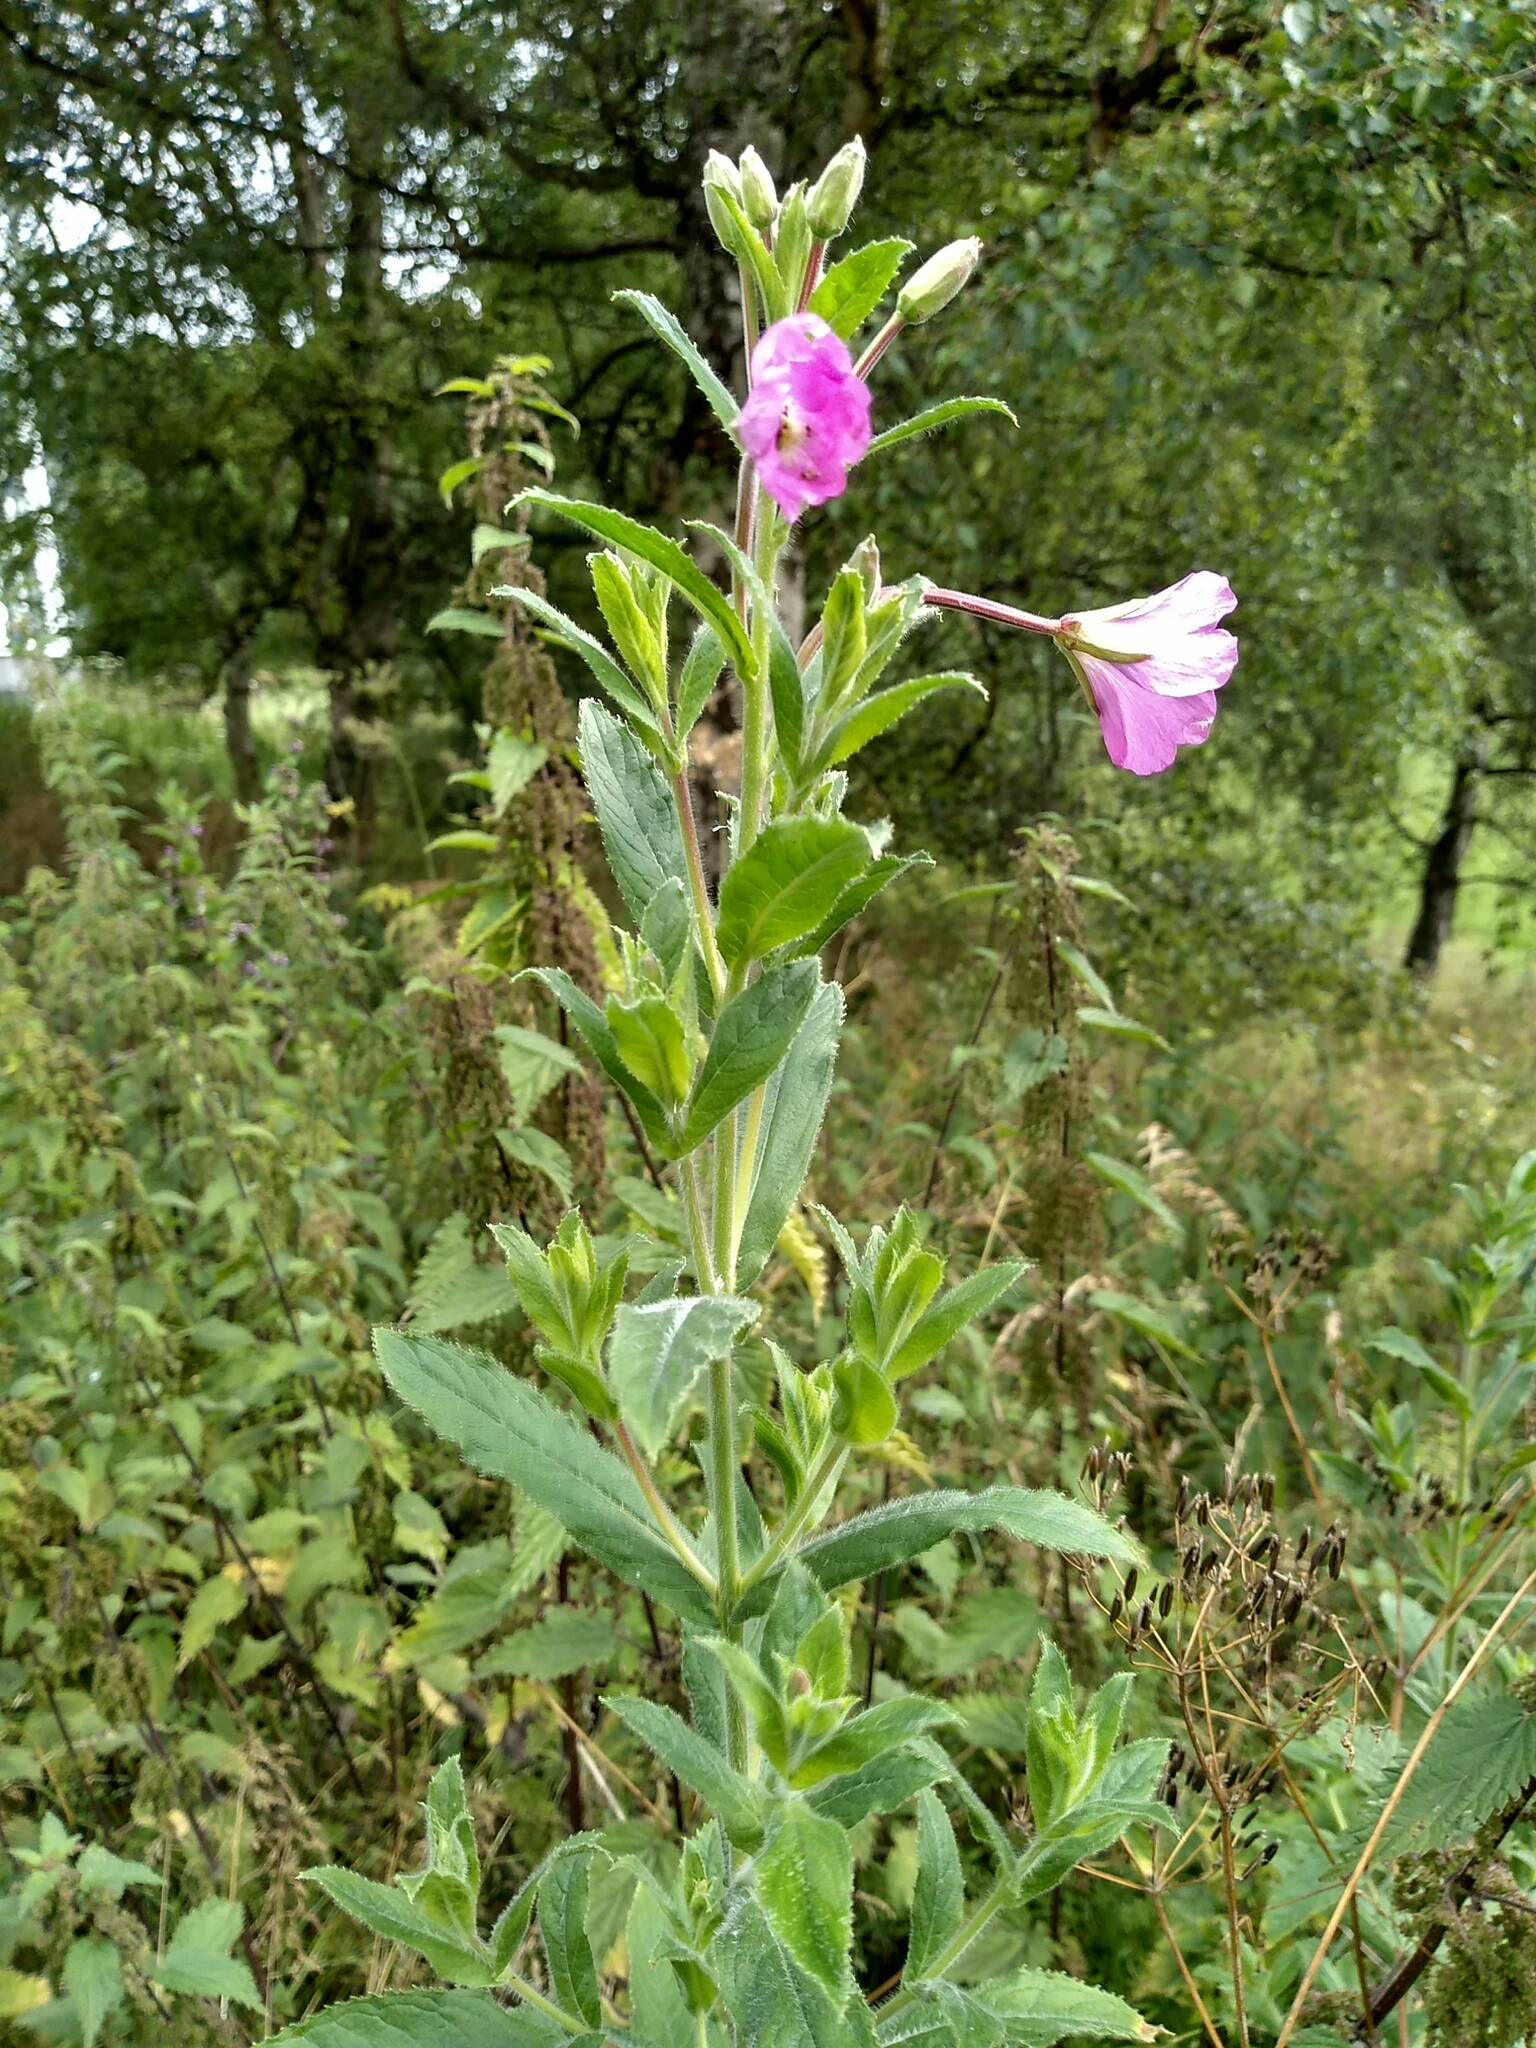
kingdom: Plantae
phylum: Tracheophyta
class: Magnoliopsida
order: Myrtales
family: Onagraceae
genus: Epilobium
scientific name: Epilobium hirsutum
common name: Great willowherb
